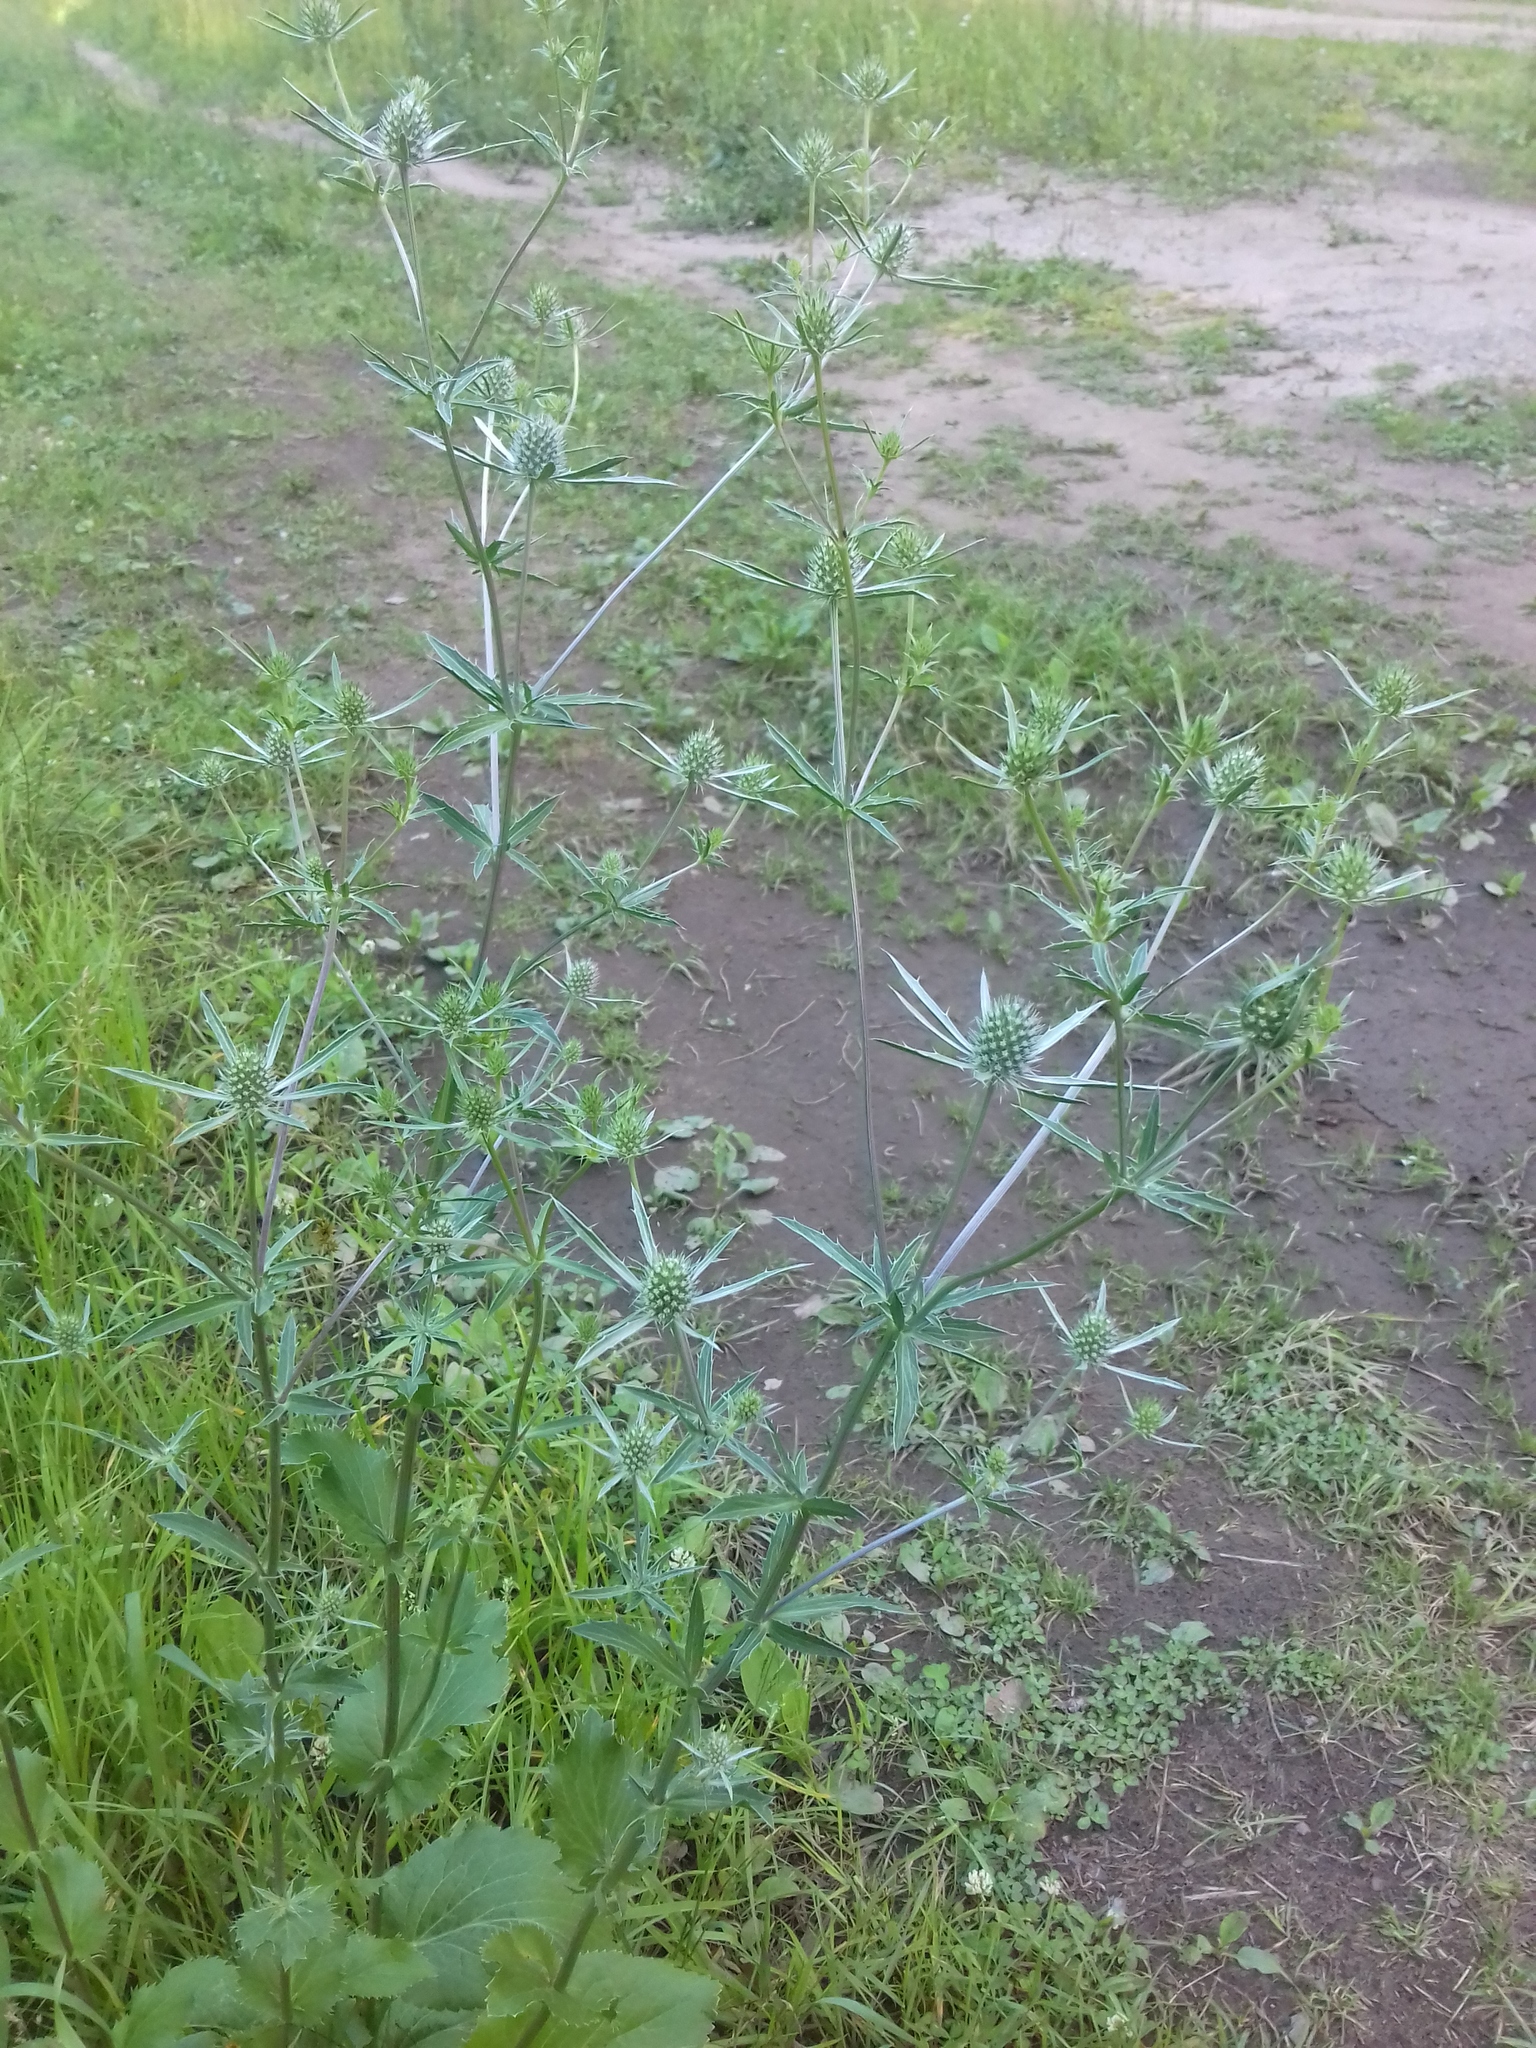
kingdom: Plantae
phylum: Tracheophyta
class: Magnoliopsida
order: Apiales
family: Apiaceae
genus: Eryngium
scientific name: Eryngium planum
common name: Blue eryngo
